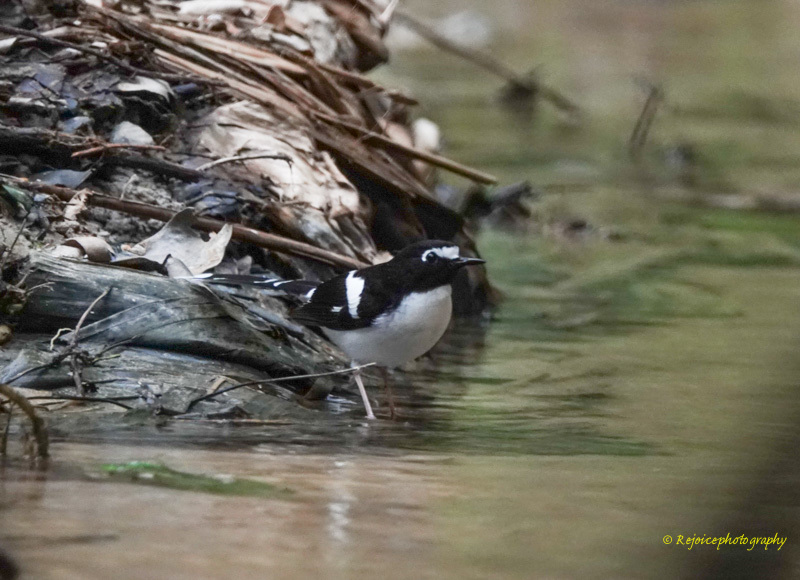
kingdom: Animalia
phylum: Chordata
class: Aves
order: Passeriformes
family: Muscicapidae
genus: Enicurus
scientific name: Enicurus immaculatus
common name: Black-backed forktail
